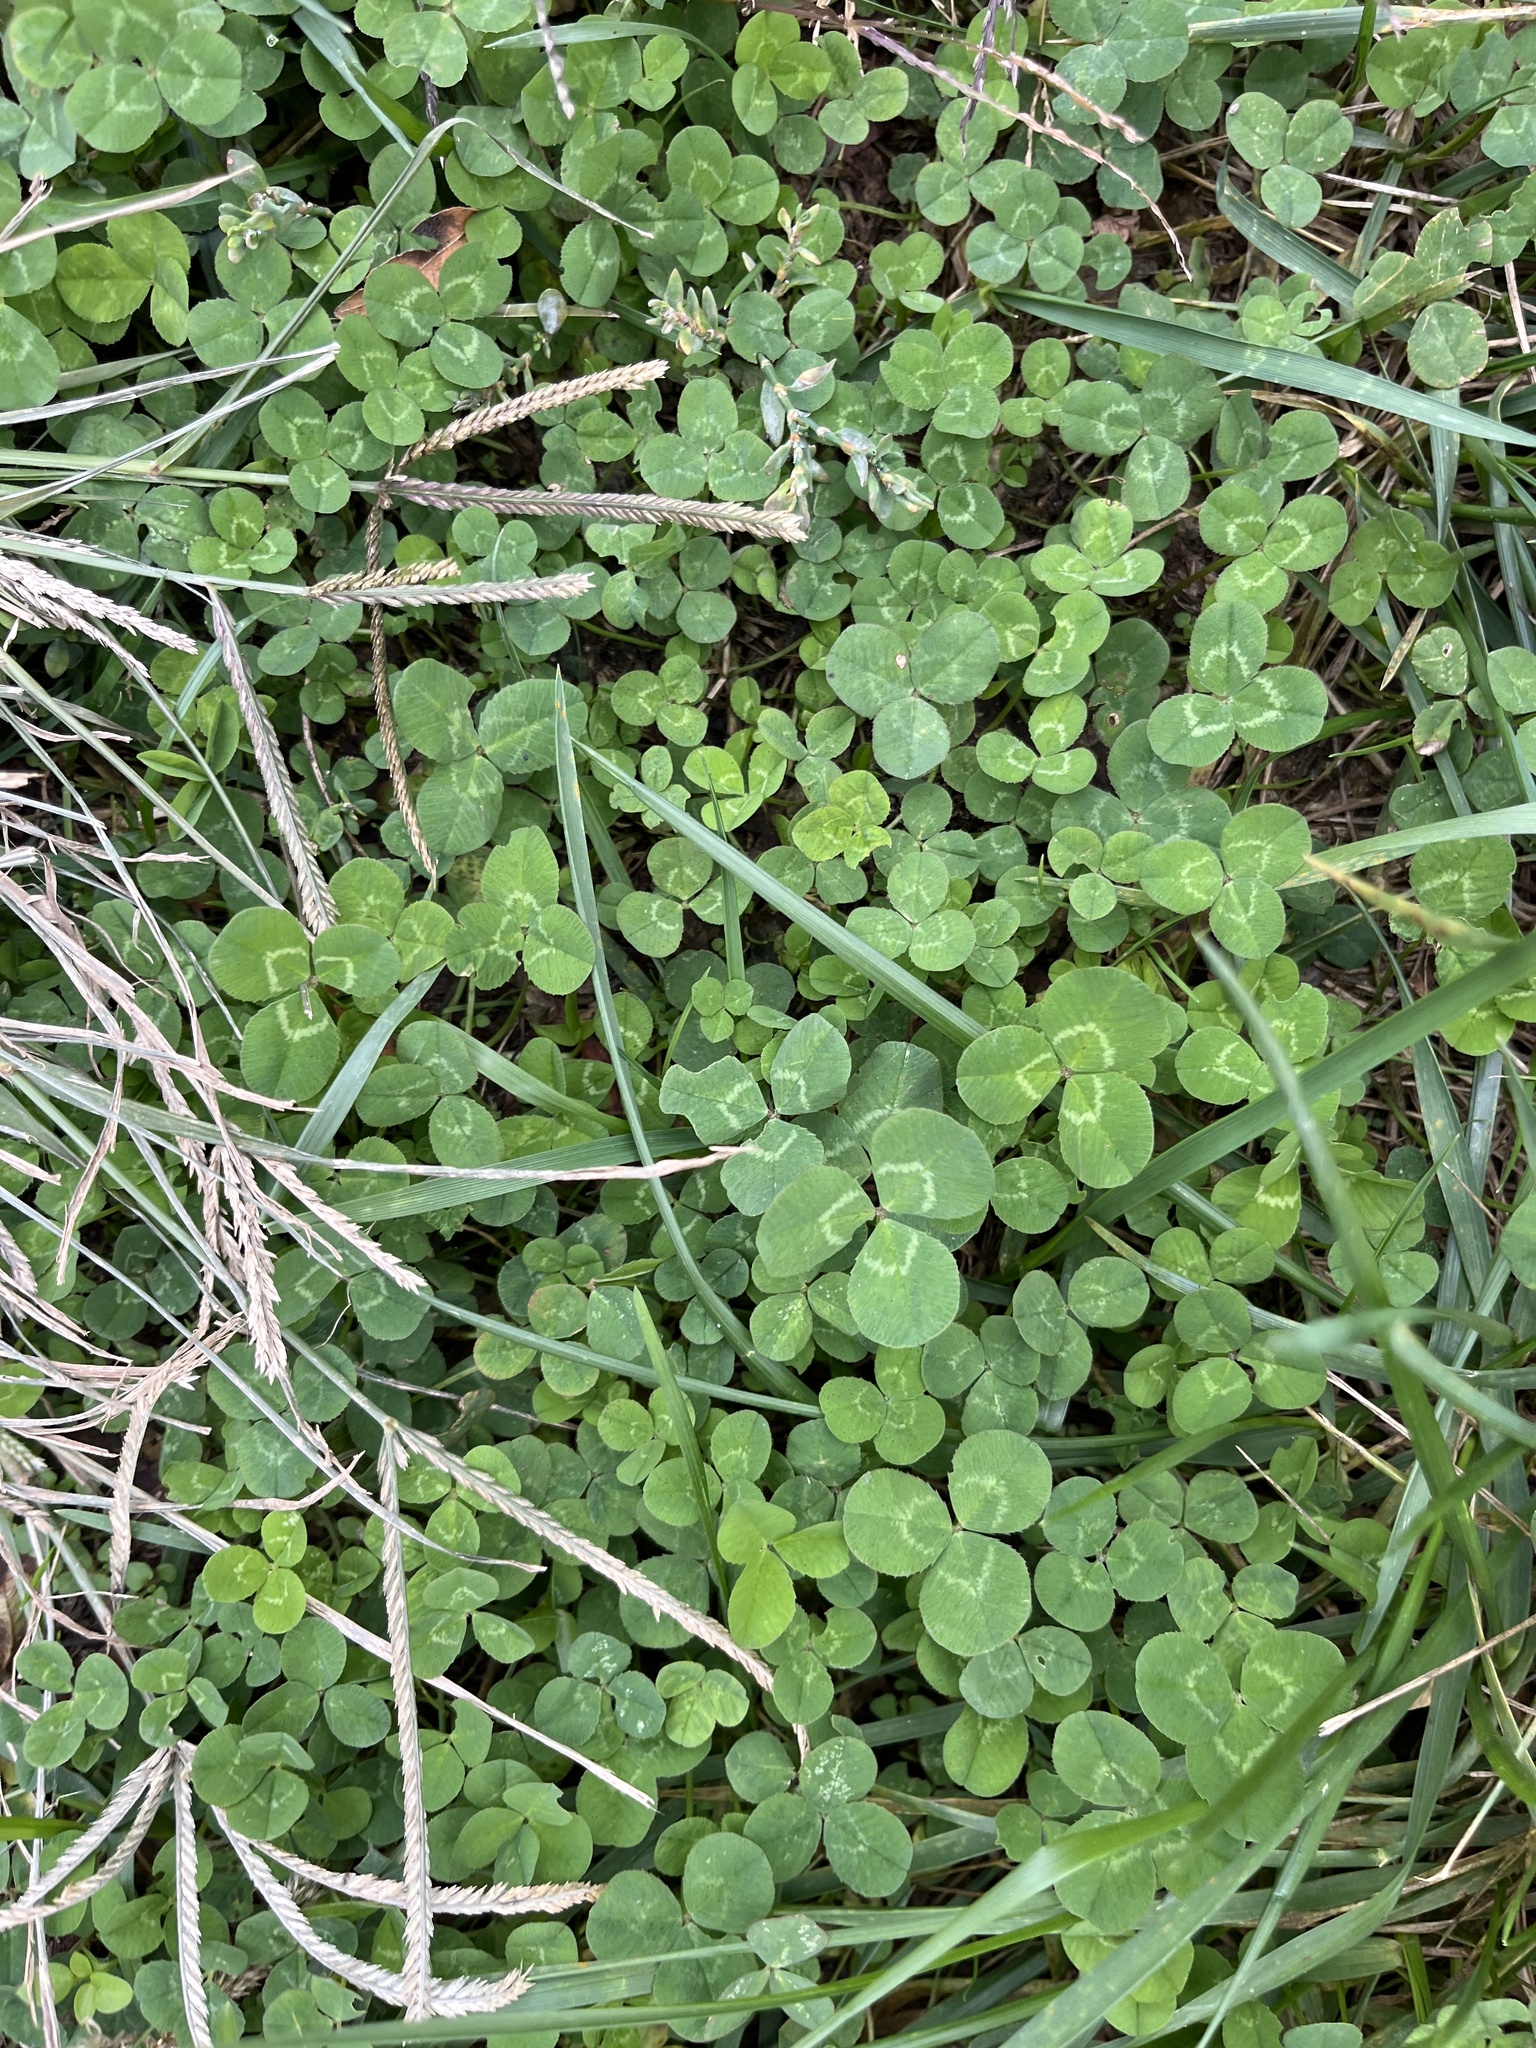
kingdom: Plantae
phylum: Tracheophyta
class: Magnoliopsida
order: Fabales
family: Fabaceae
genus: Trifolium
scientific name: Trifolium repens
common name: White clover
